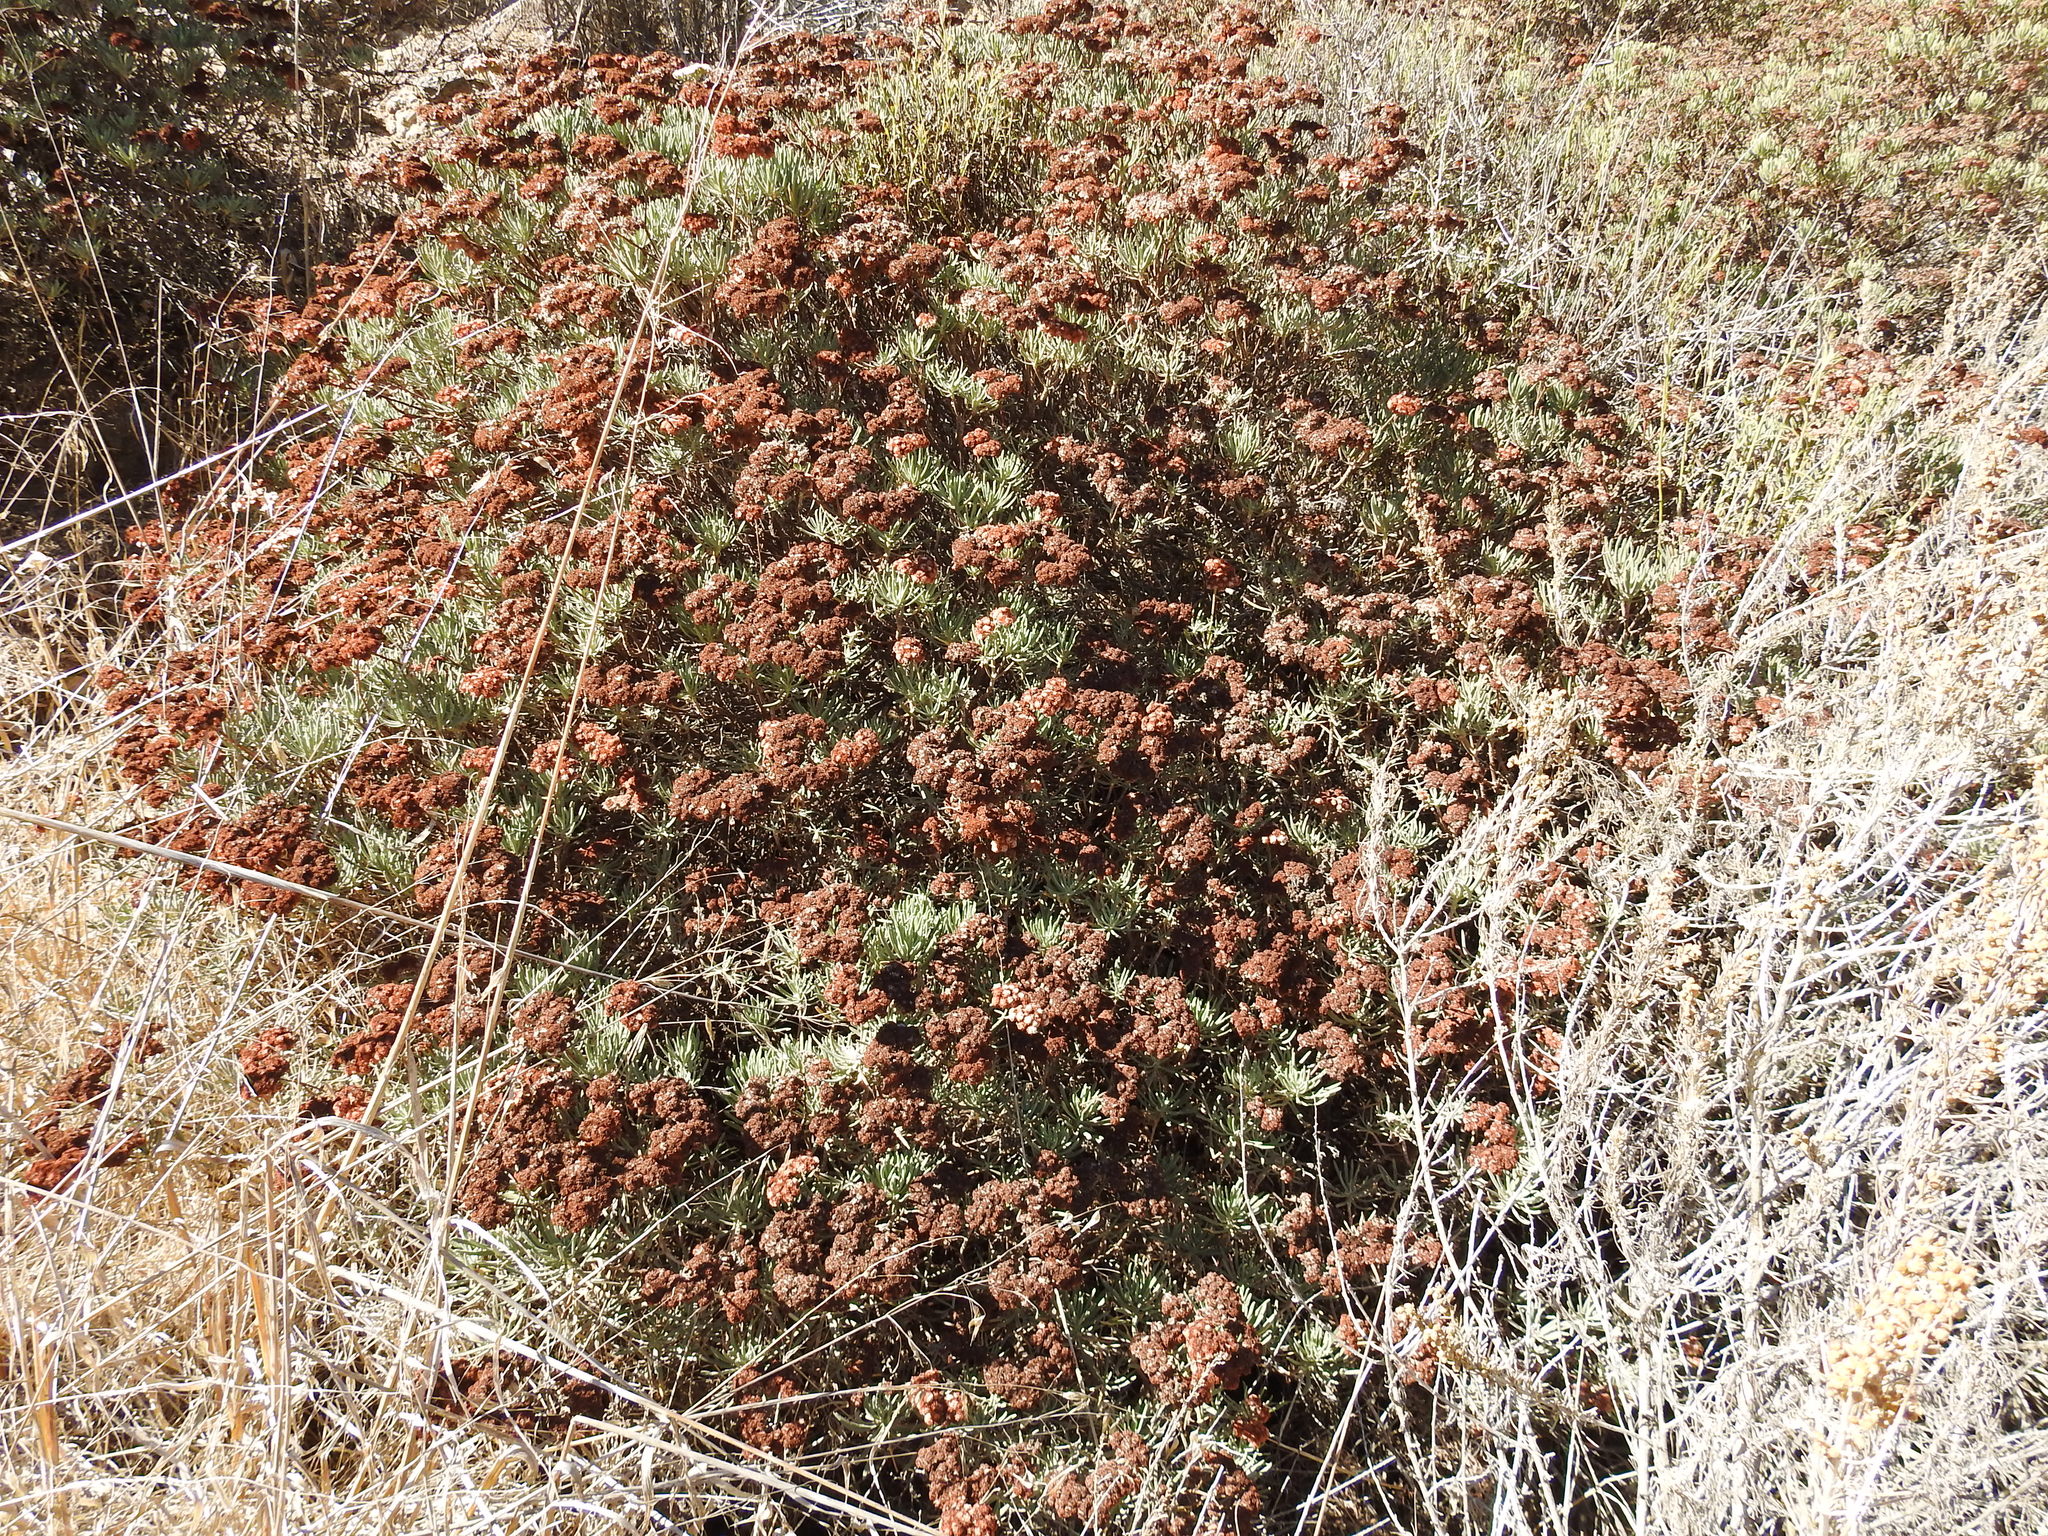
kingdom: Plantae
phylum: Tracheophyta
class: Magnoliopsida
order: Caryophyllales
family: Polygonaceae
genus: Eriogonum
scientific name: Eriogonum arborescens
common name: Island buckwheat
